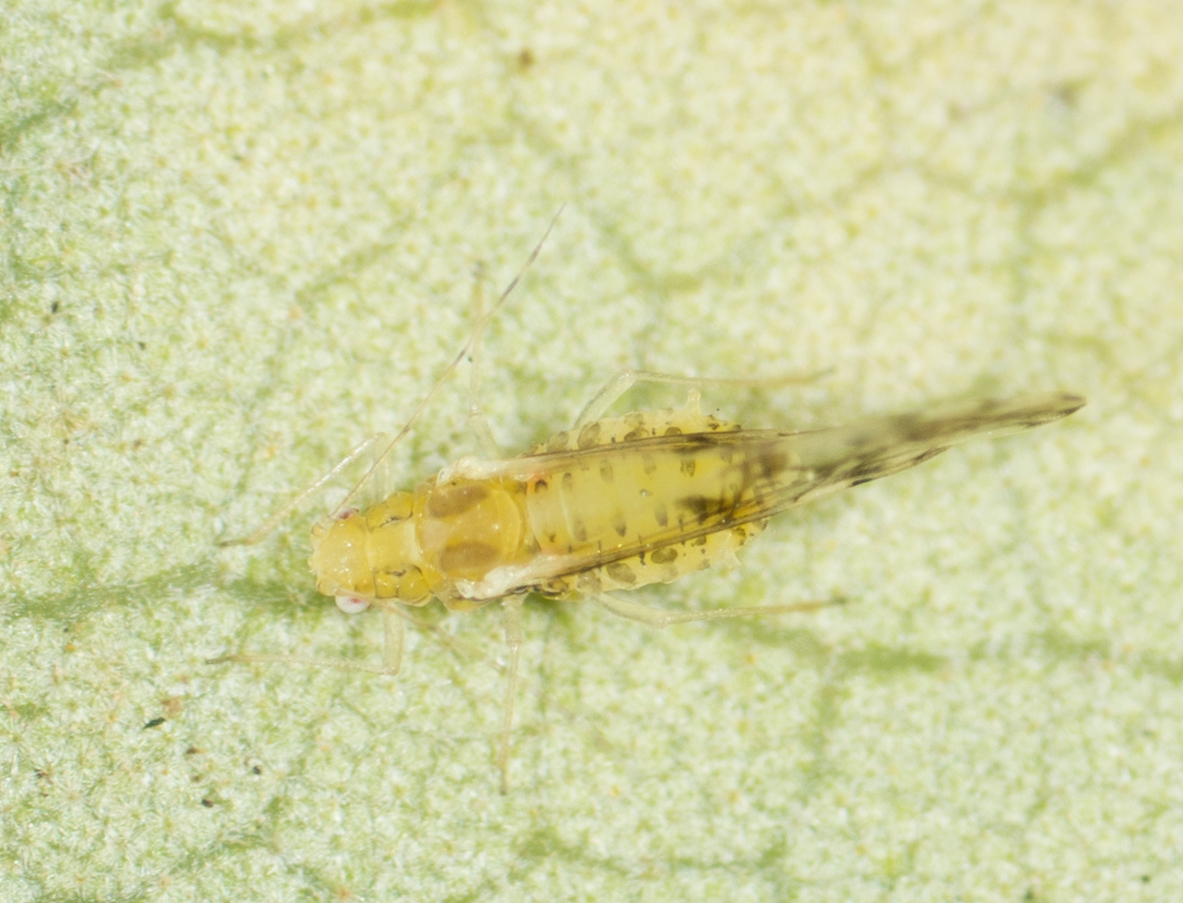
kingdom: Animalia
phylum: Arthropoda
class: Insecta
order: Hemiptera
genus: Neomyzocallis
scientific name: Neomyzocallis
